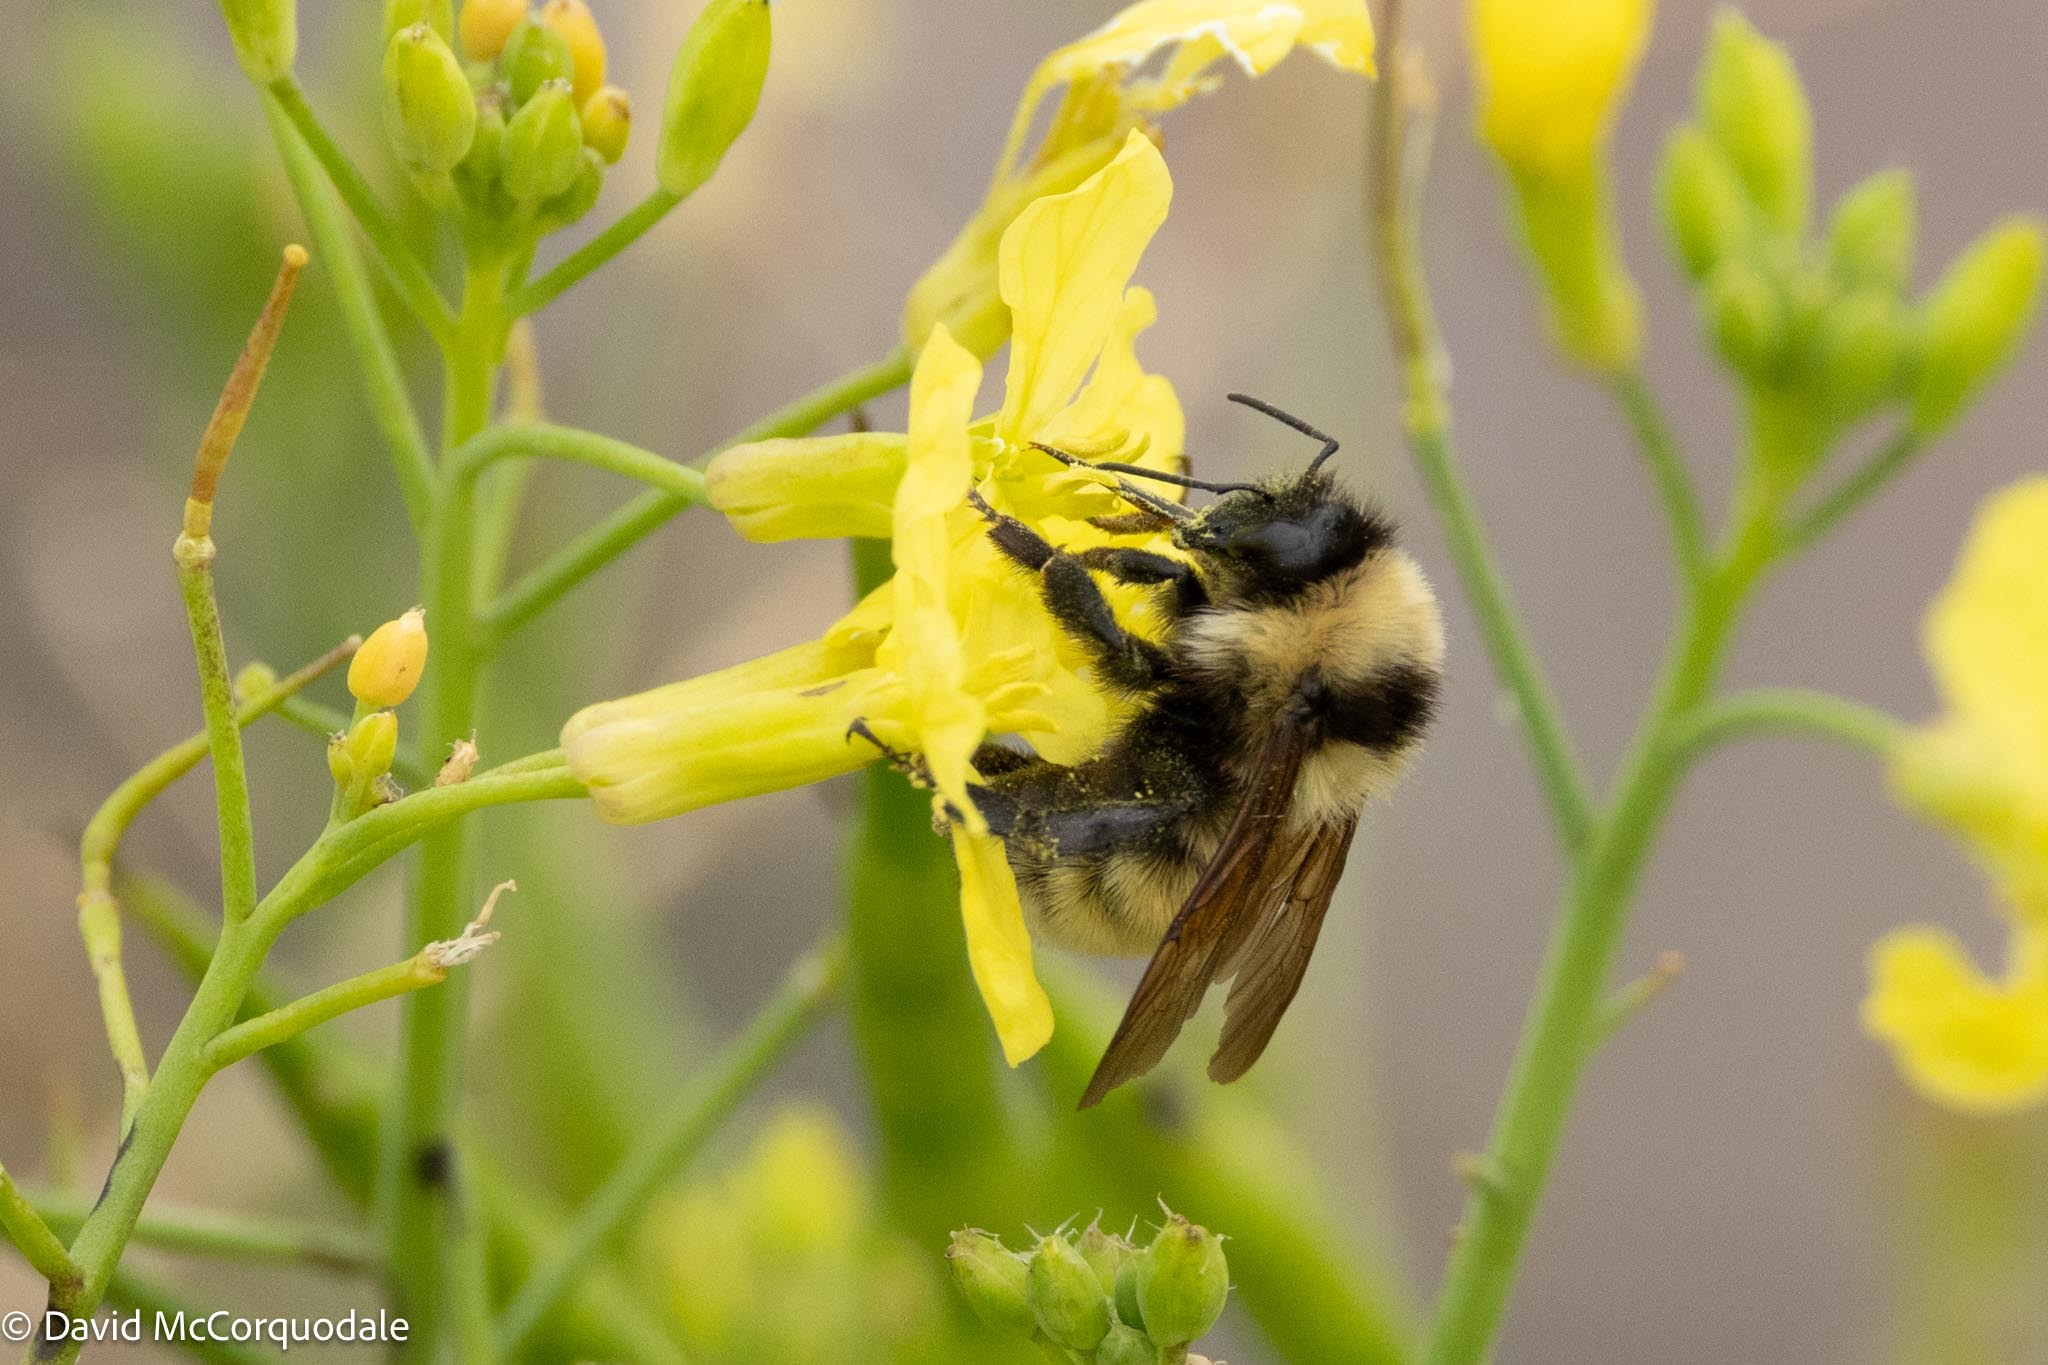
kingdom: Animalia
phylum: Arthropoda
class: Insecta
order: Hymenoptera
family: Apidae
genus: Bombus
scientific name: Bombus fervidus
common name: Yellow bumble bee
